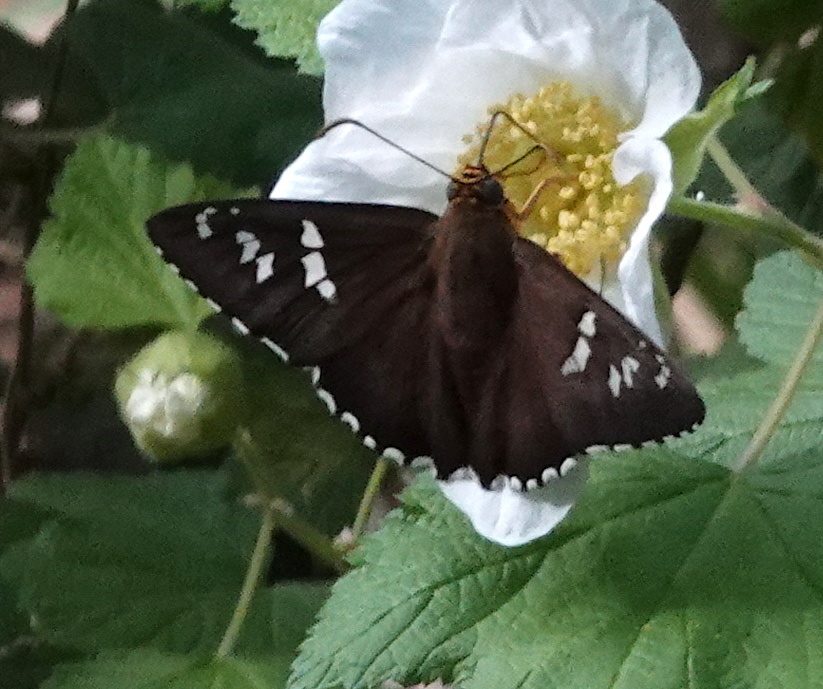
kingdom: Animalia
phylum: Arthropoda
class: Insecta
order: Lepidoptera
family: Hesperiidae
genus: Pyrrhopyge
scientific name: Pyrrhopyge araxes
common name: Dull firetip
